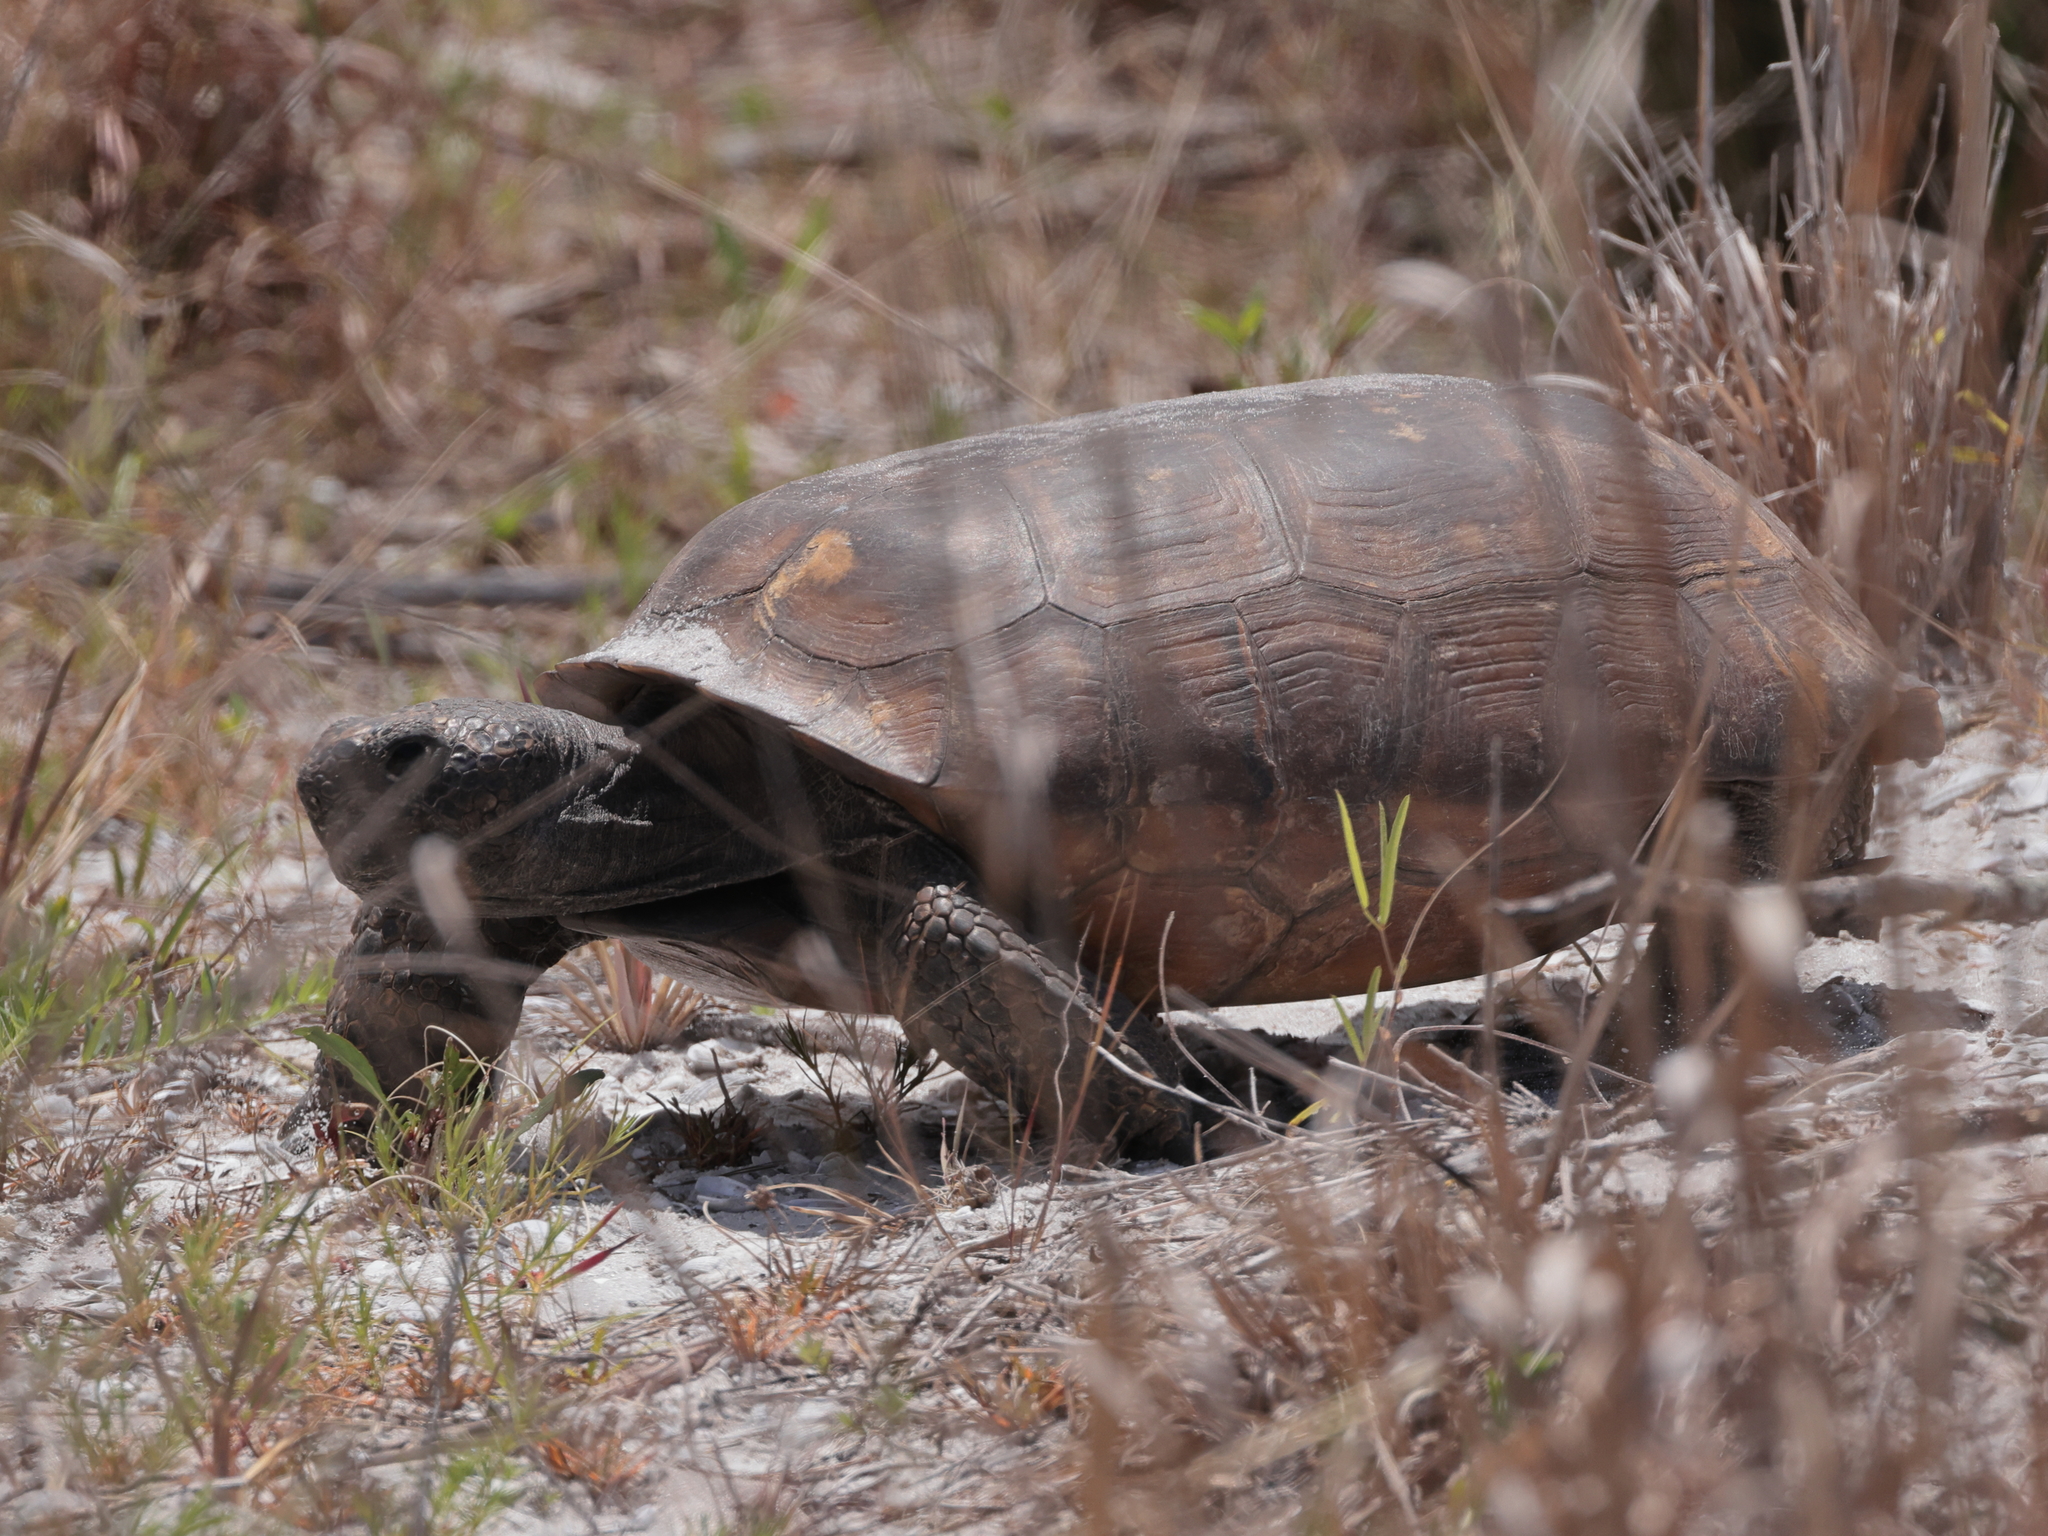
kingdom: Animalia
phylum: Chordata
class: Testudines
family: Testudinidae
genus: Gopherus
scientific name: Gopherus polyphemus
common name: Florida gopher tortoise
